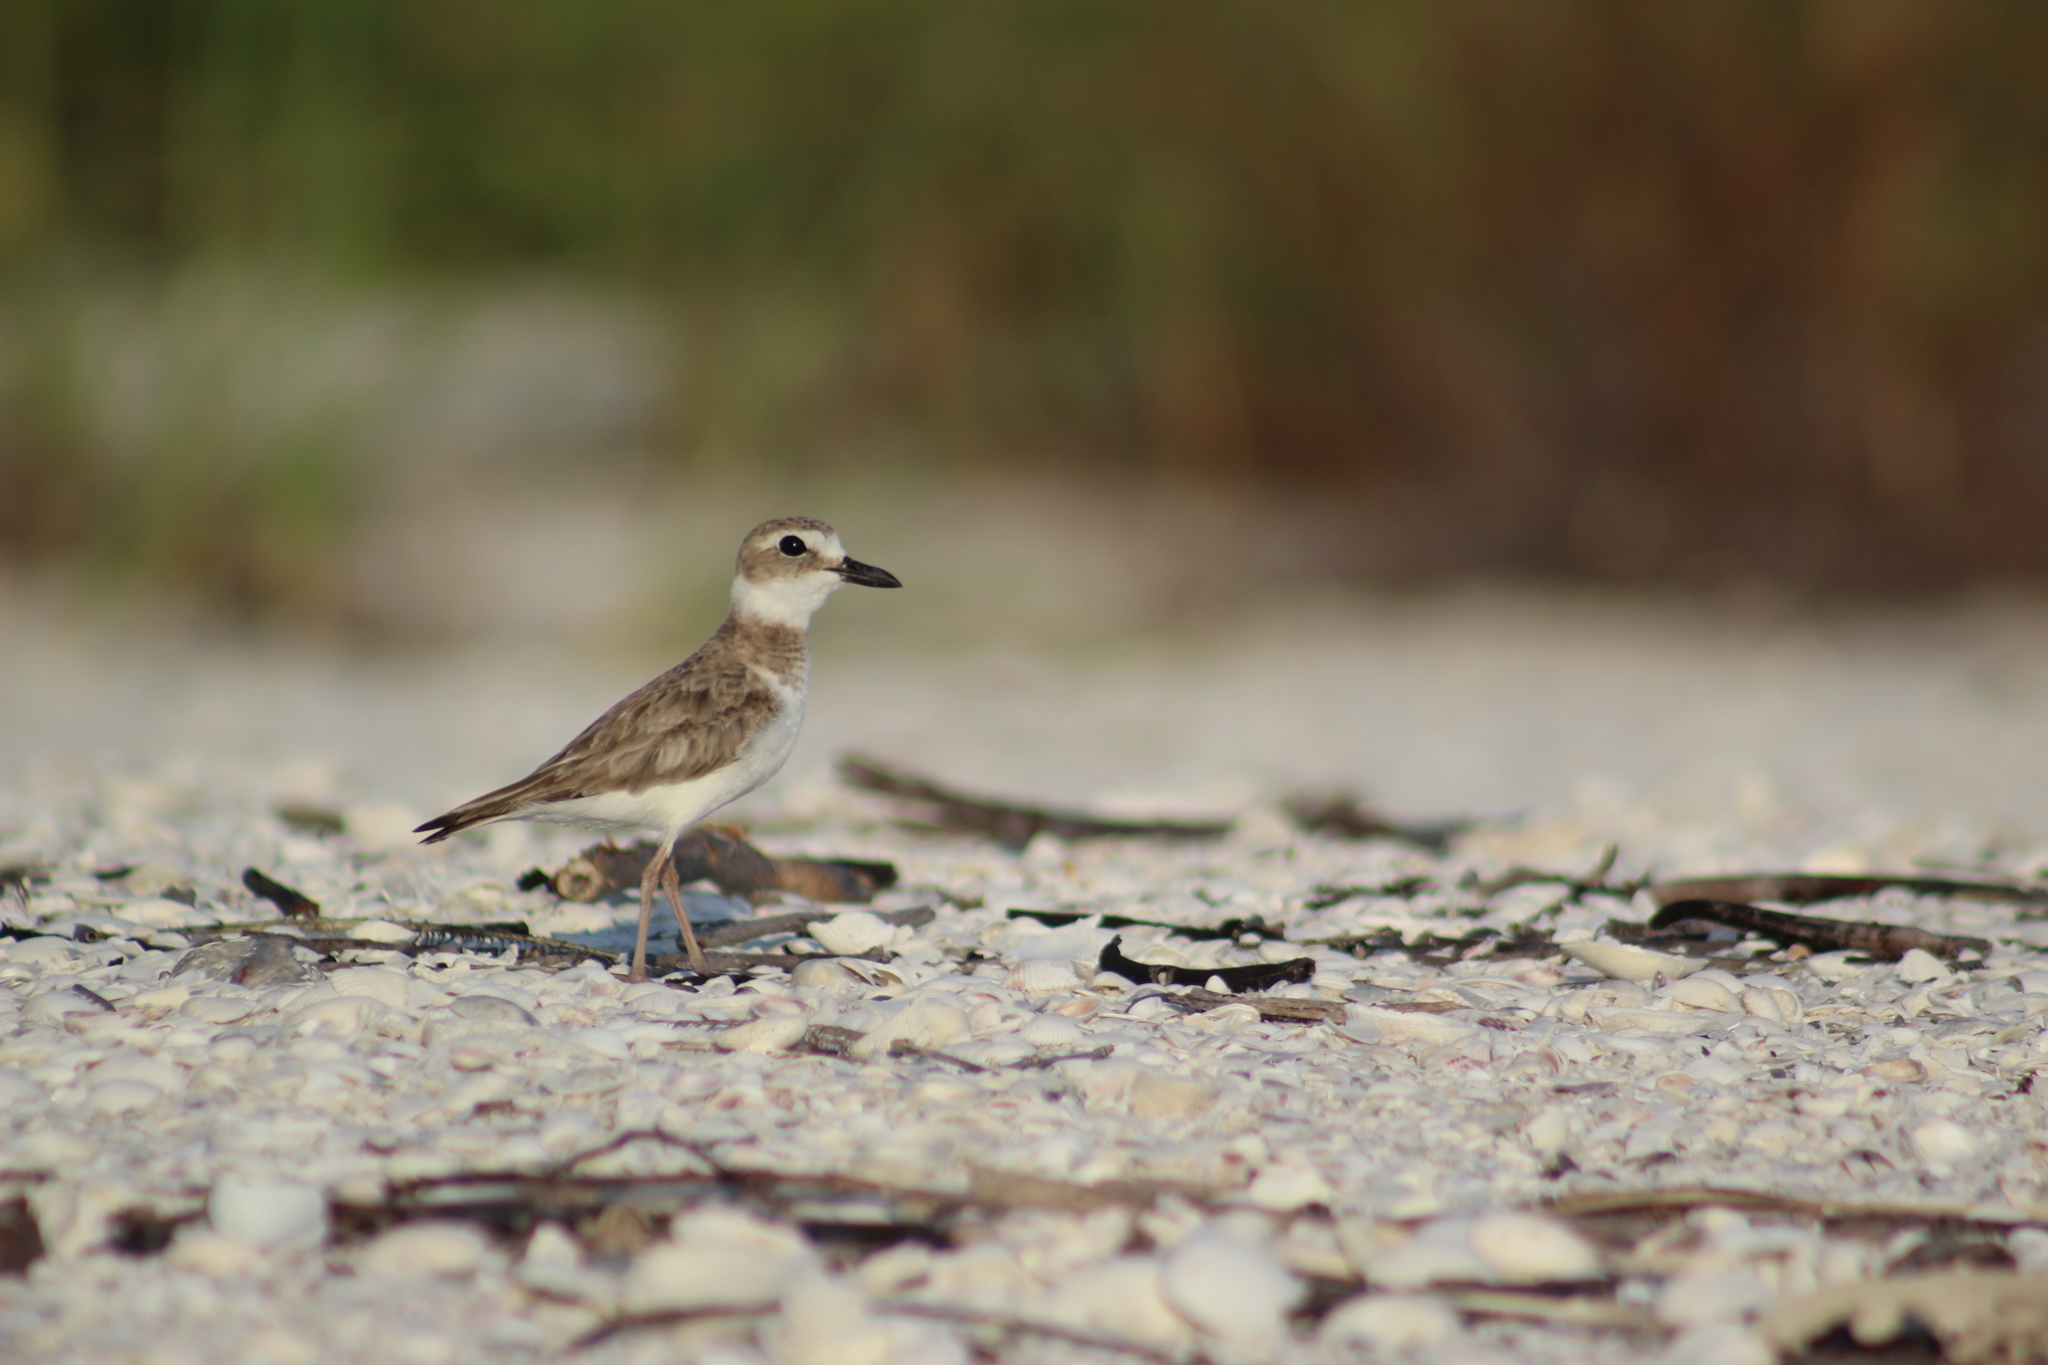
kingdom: Animalia
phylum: Chordata
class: Aves
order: Charadriiformes
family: Charadriidae
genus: Anarhynchus
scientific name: Anarhynchus
